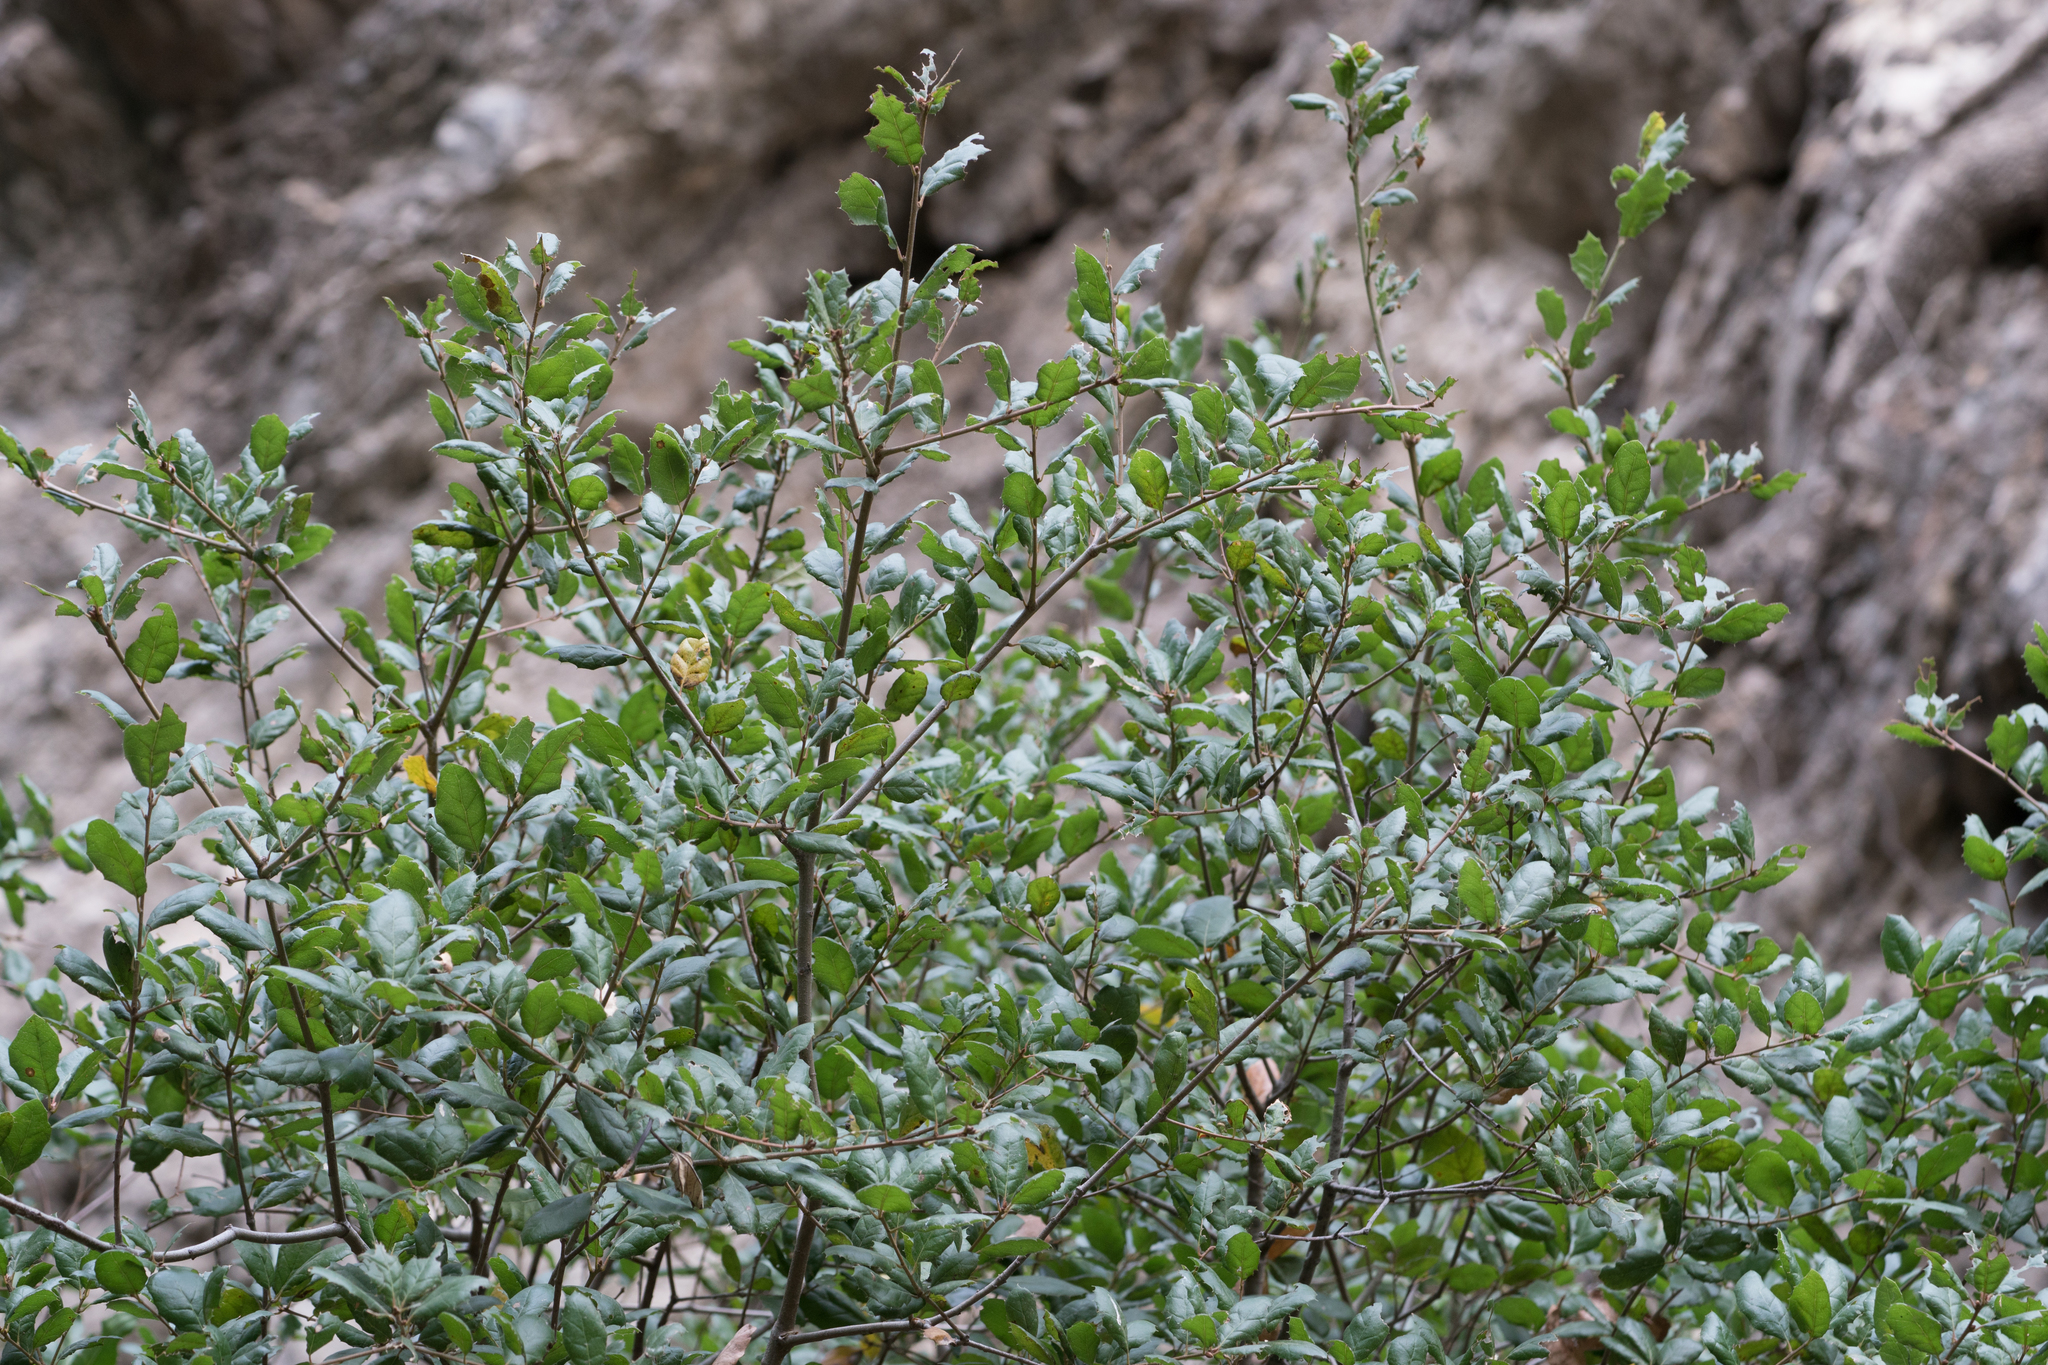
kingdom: Plantae
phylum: Tracheophyta
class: Magnoliopsida
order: Fagales
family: Fagaceae
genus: Quercus
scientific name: Quercus agrifolia
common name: California live oak
